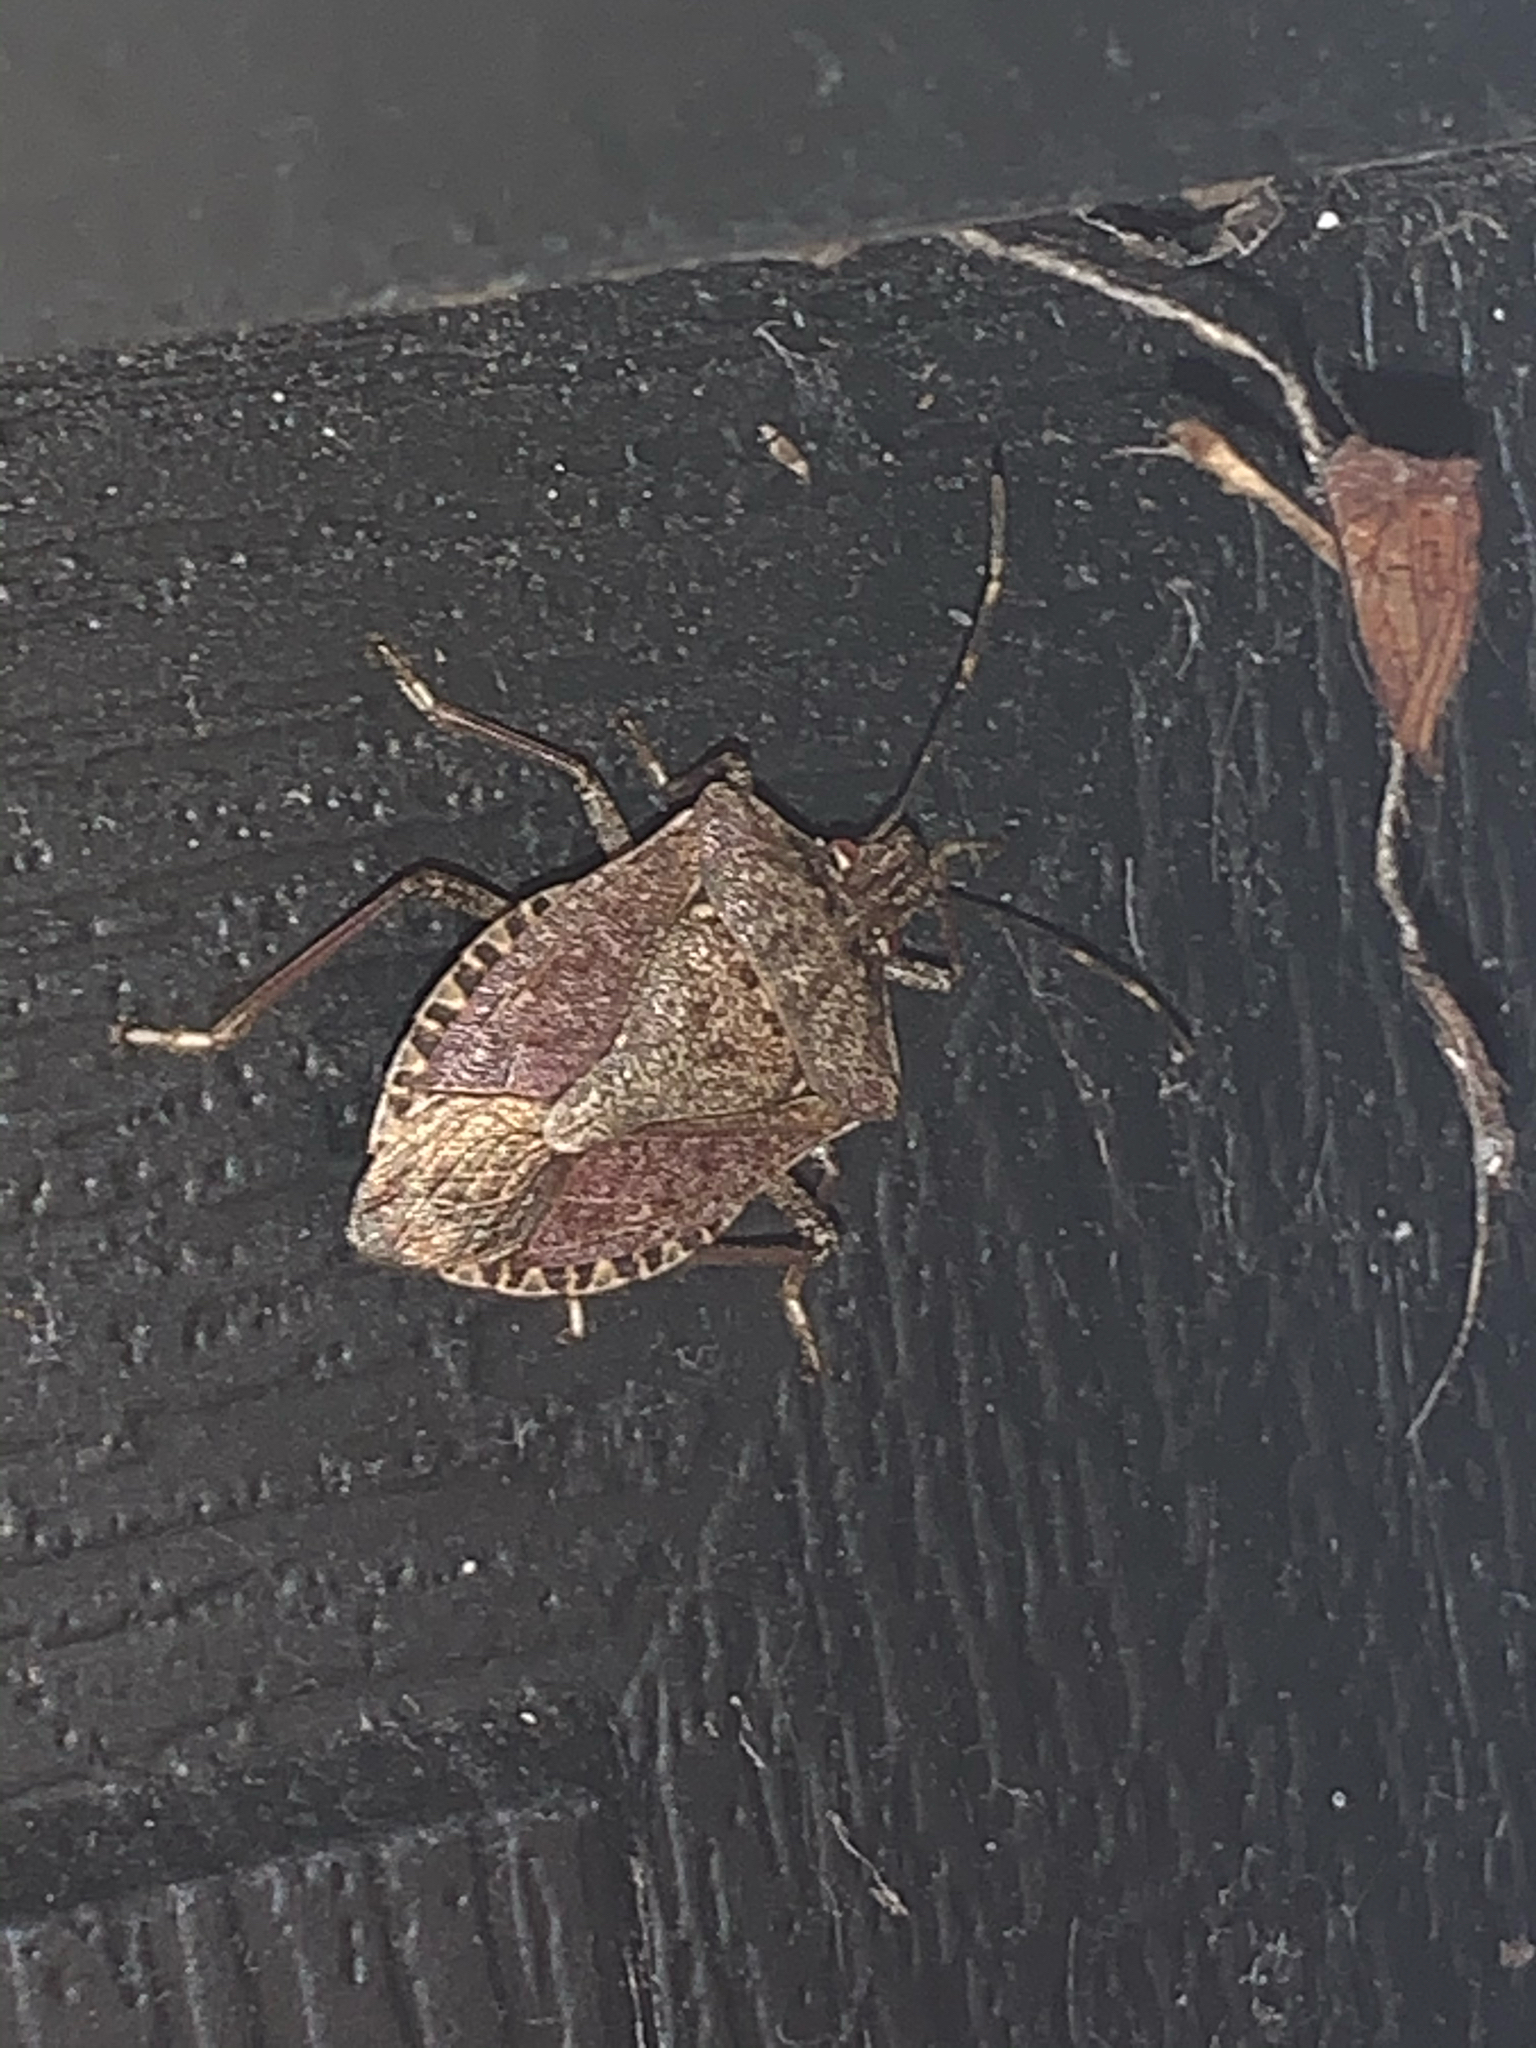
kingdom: Animalia
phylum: Arthropoda
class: Insecta
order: Hemiptera
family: Pentatomidae
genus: Halyomorpha
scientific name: Halyomorpha halys
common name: Brown marmorated stink bug
